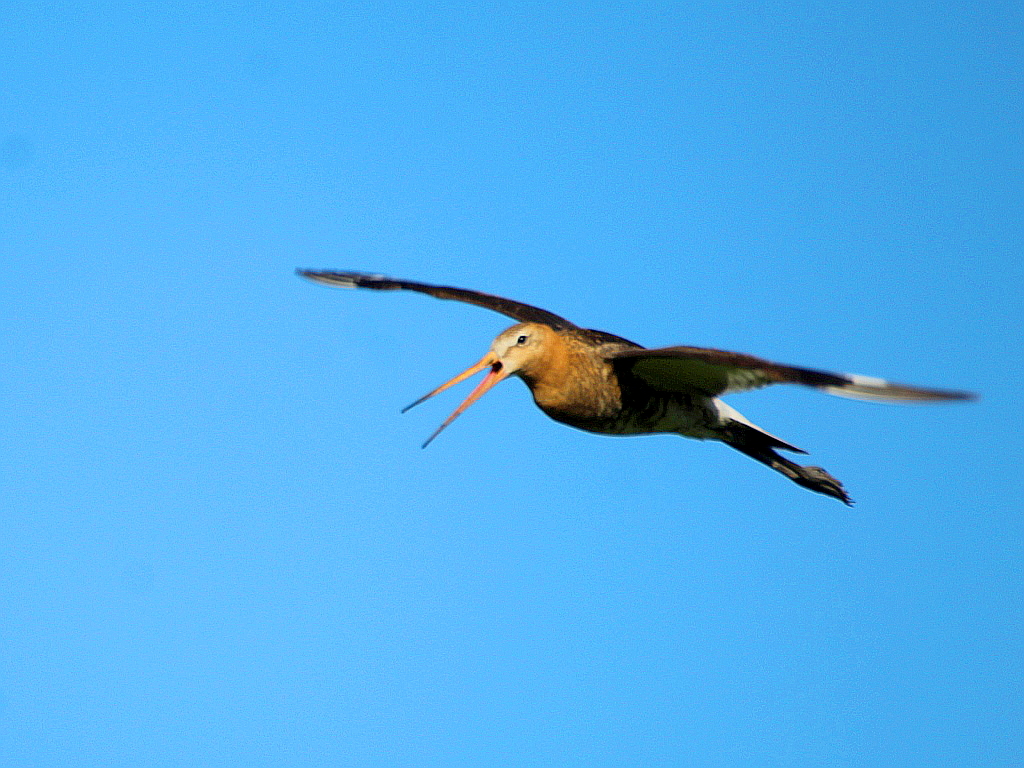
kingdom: Animalia
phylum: Chordata
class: Aves
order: Charadriiformes
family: Scolopacidae
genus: Limosa
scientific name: Limosa limosa
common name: Black-tailed godwit
